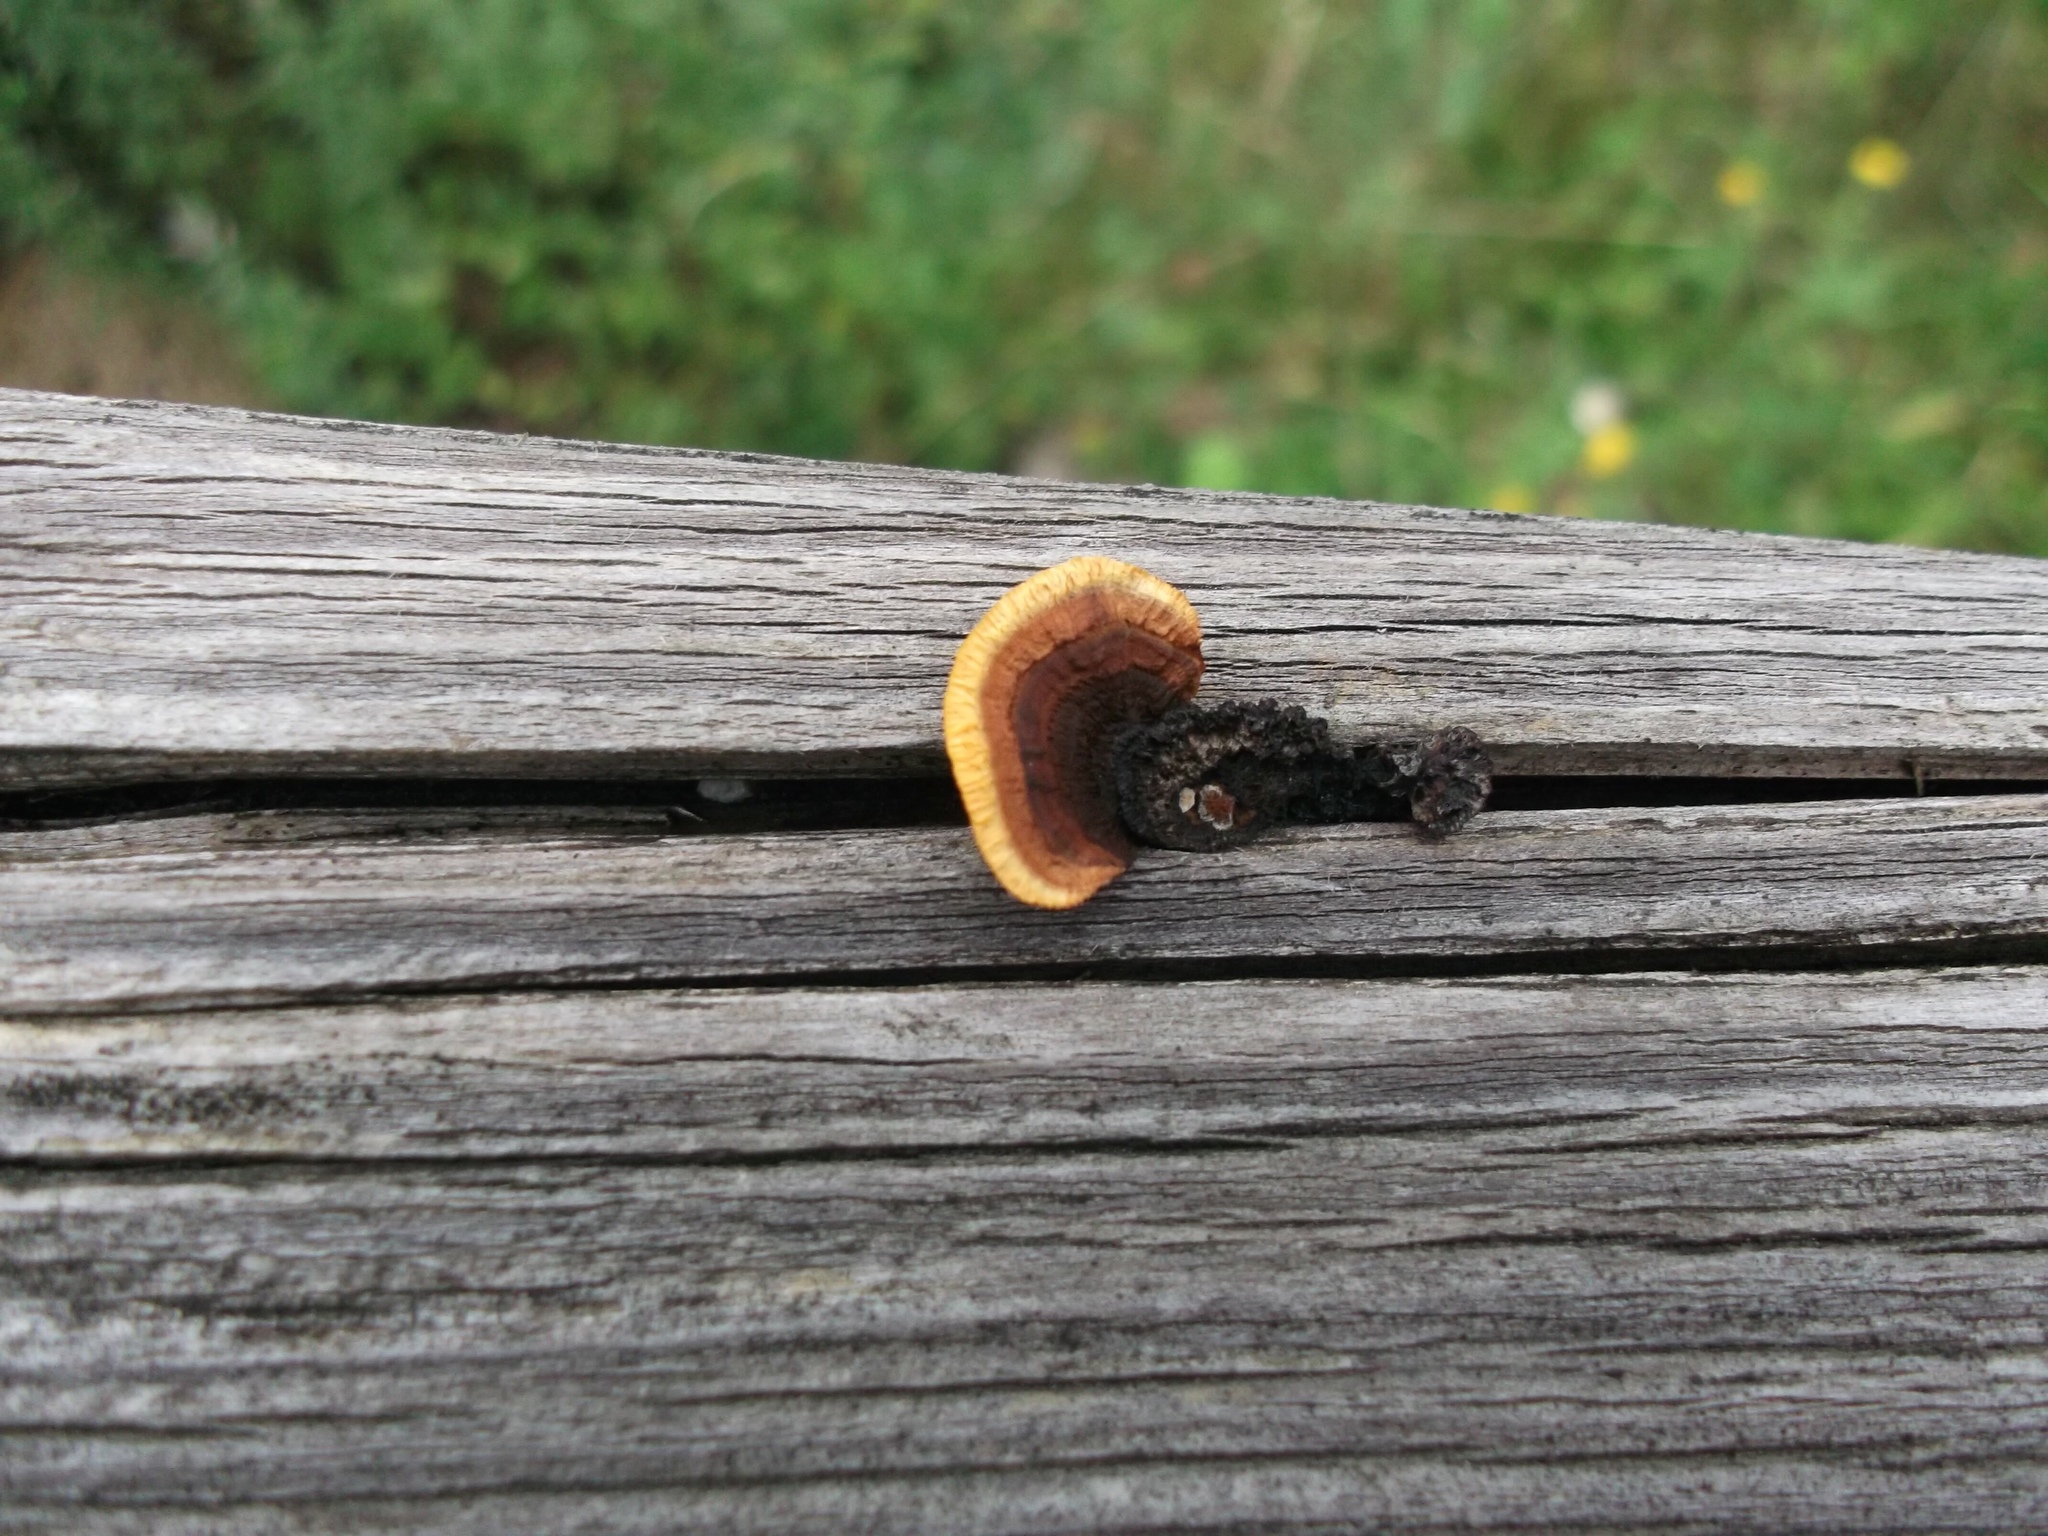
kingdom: Fungi
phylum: Basidiomycota
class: Agaricomycetes
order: Gloeophyllales
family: Gloeophyllaceae
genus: Gloeophyllum
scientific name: Gloeophyllum sepiarium
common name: Conifer mazegill
